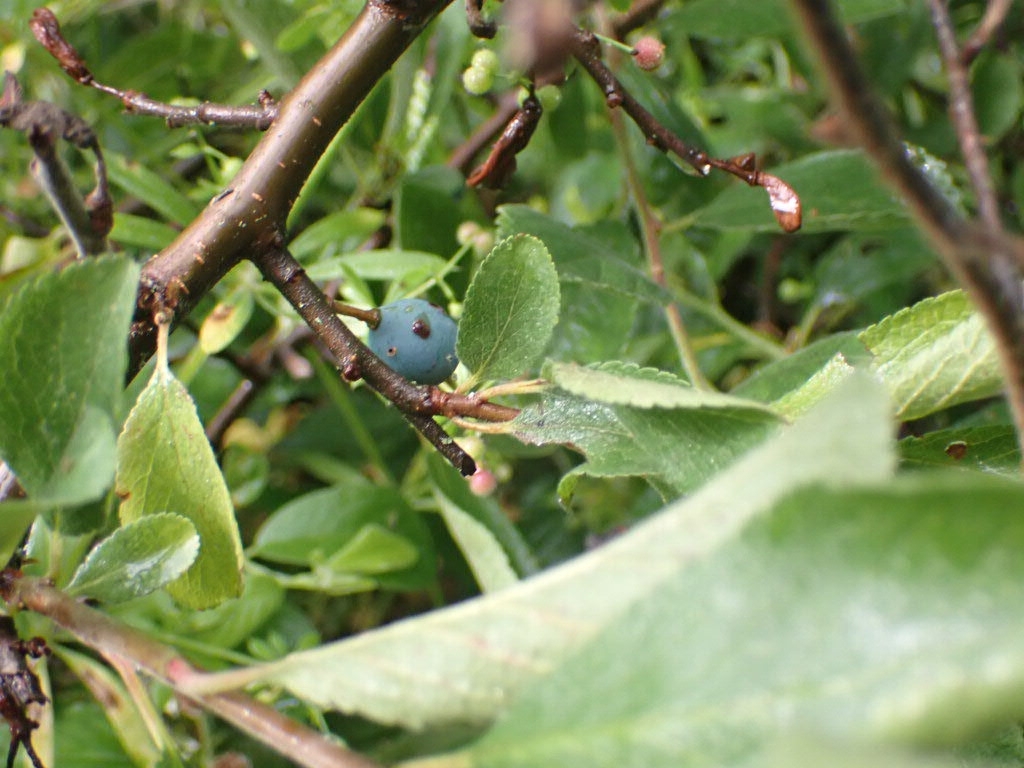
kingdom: Plantae
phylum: Tracheophyta
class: Magnoliopsida
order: Rosales
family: Rosaceae
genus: Prunus
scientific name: Prunus spinosa
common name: Blackthorn
